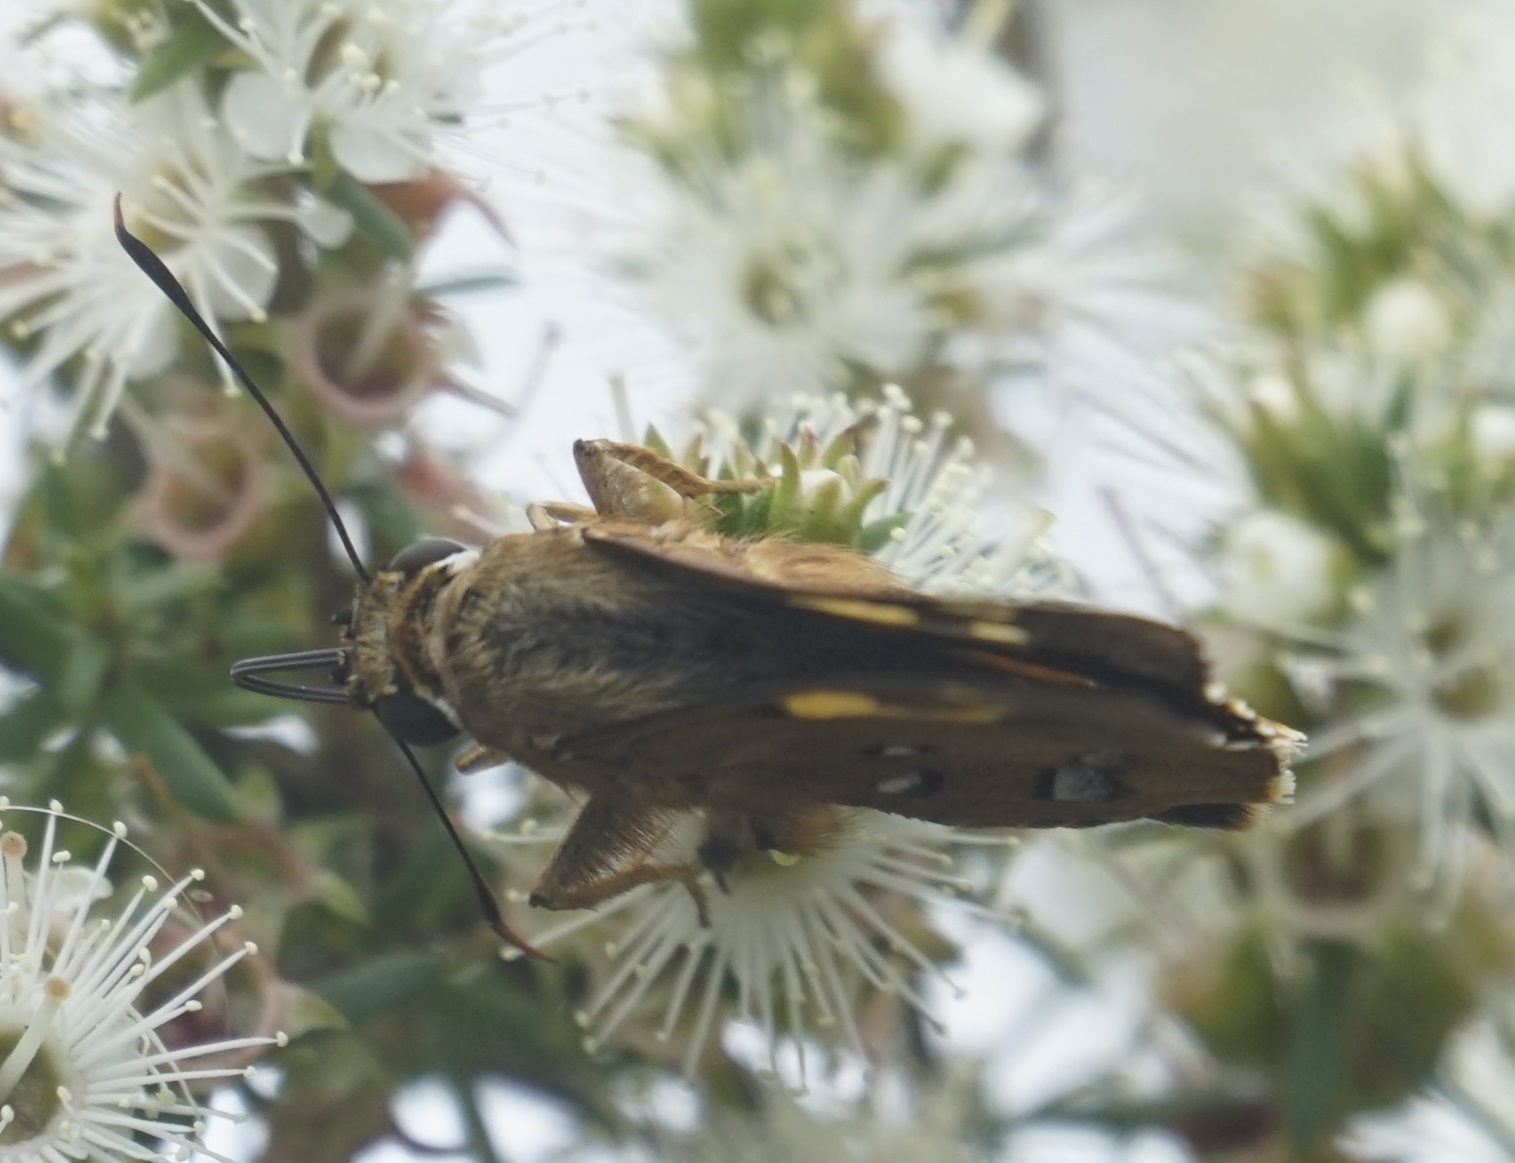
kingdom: Animalia
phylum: Arthropoda
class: Insecta
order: Lepidoptera
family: Hesperiidae
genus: Trapezites
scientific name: Trapezites symmomus
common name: Splendid ochre
